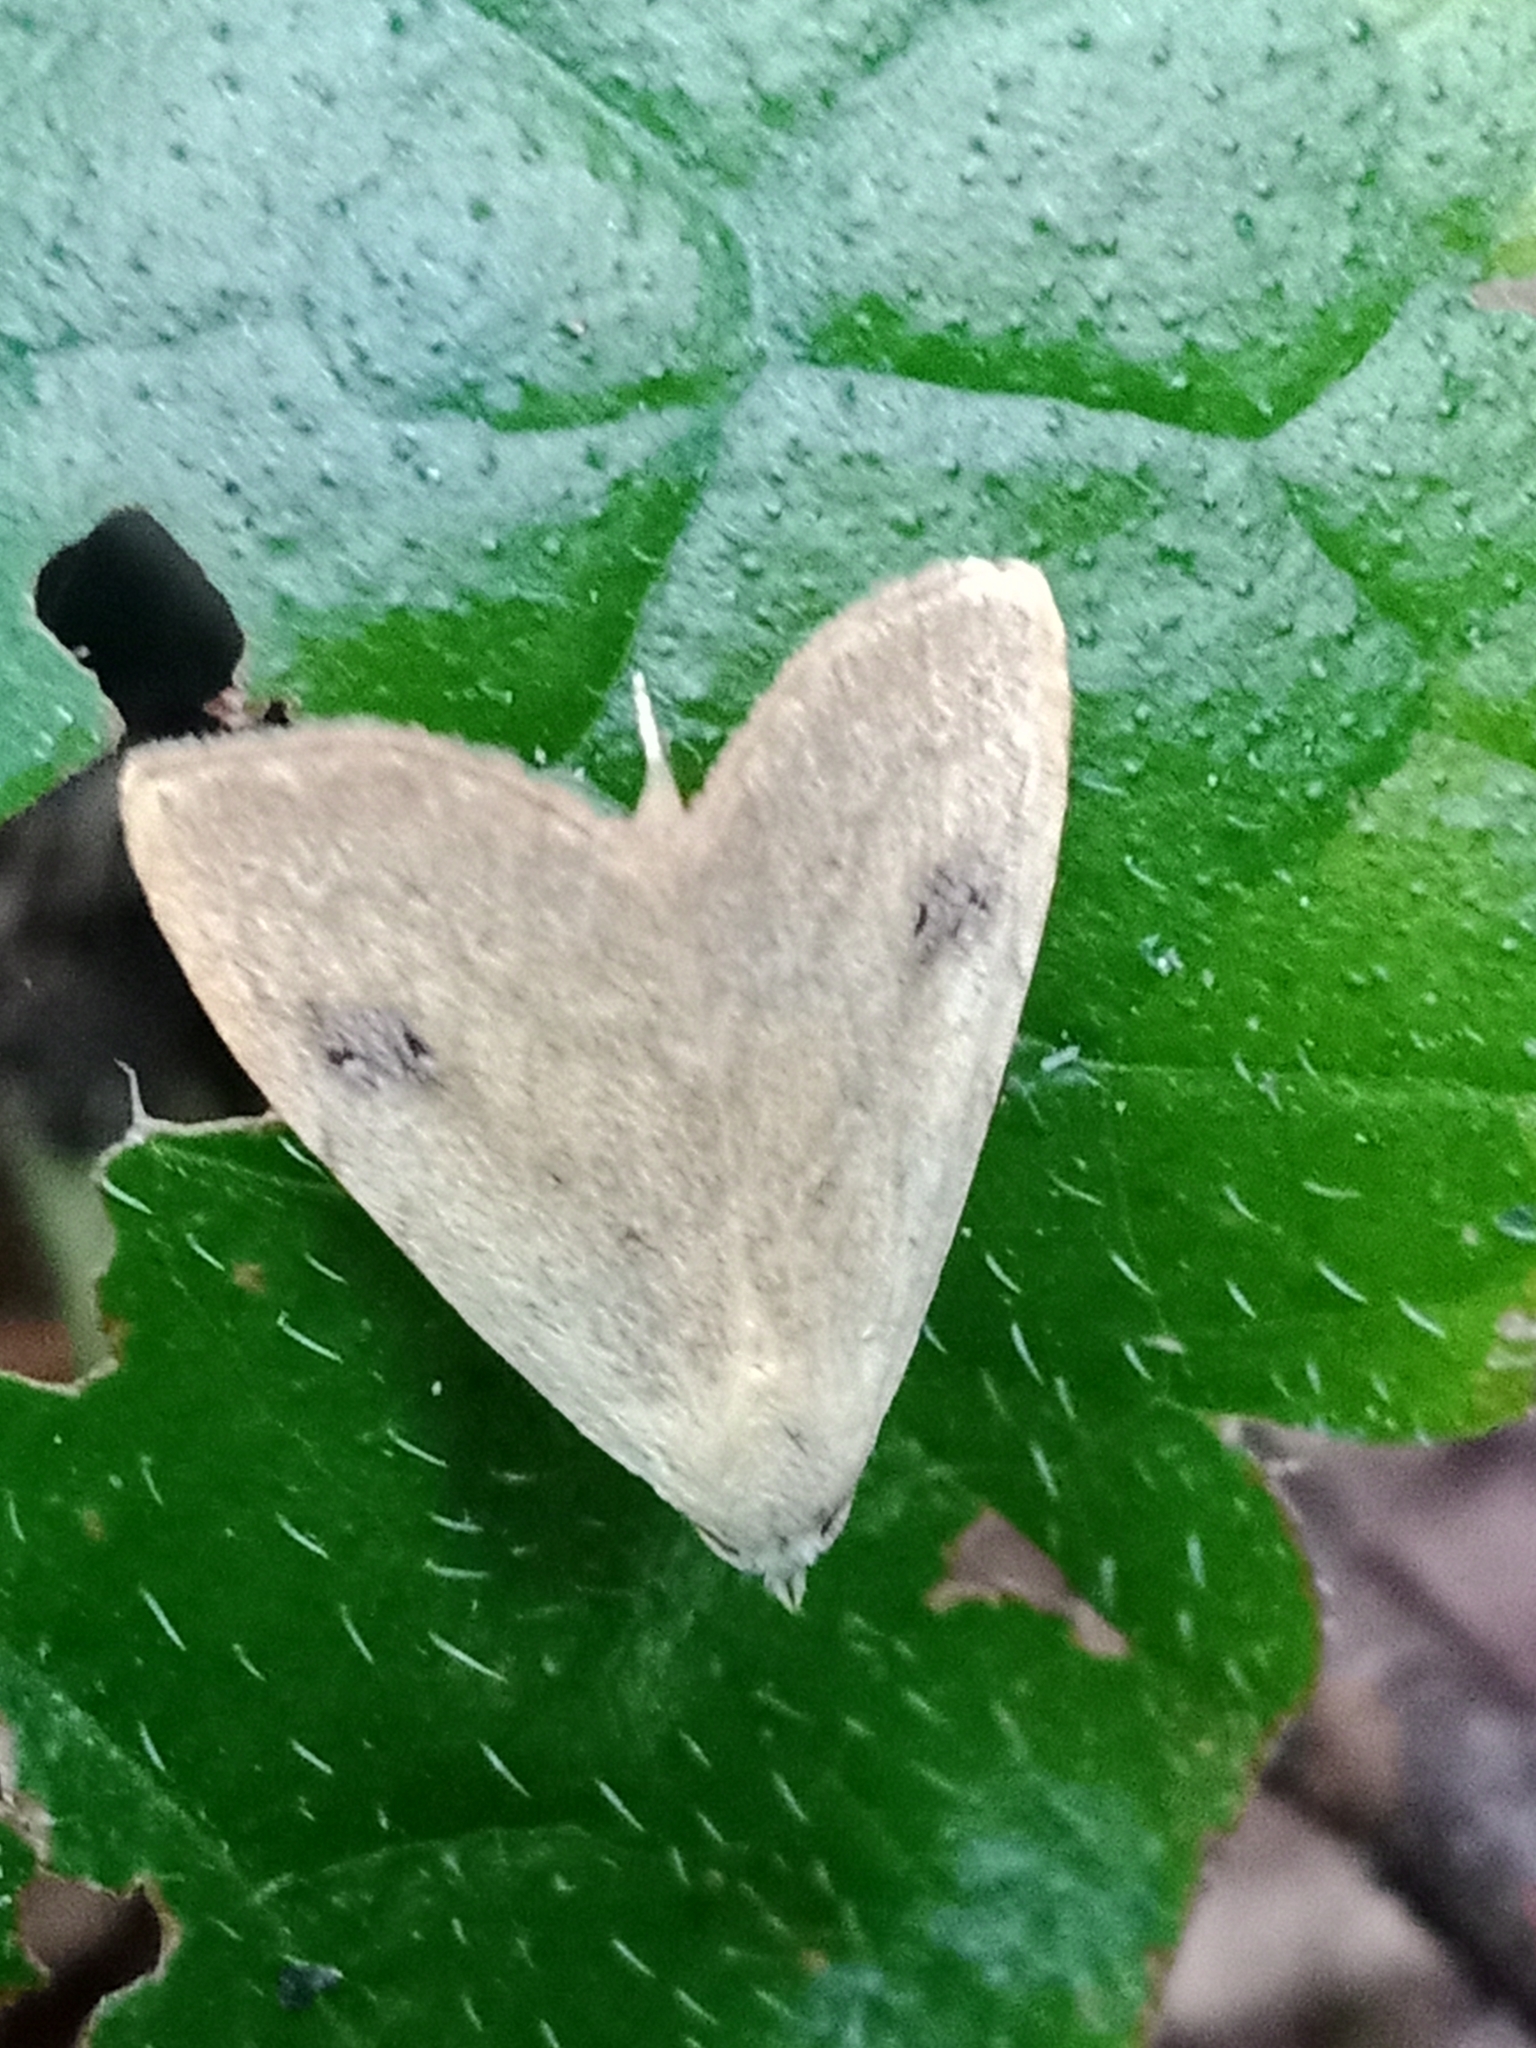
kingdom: Animalia
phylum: Arthropoda
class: Insecta
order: Lepidoptera
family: Erebidae
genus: Rivula
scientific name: Rivula sericealis
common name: Straw dot
